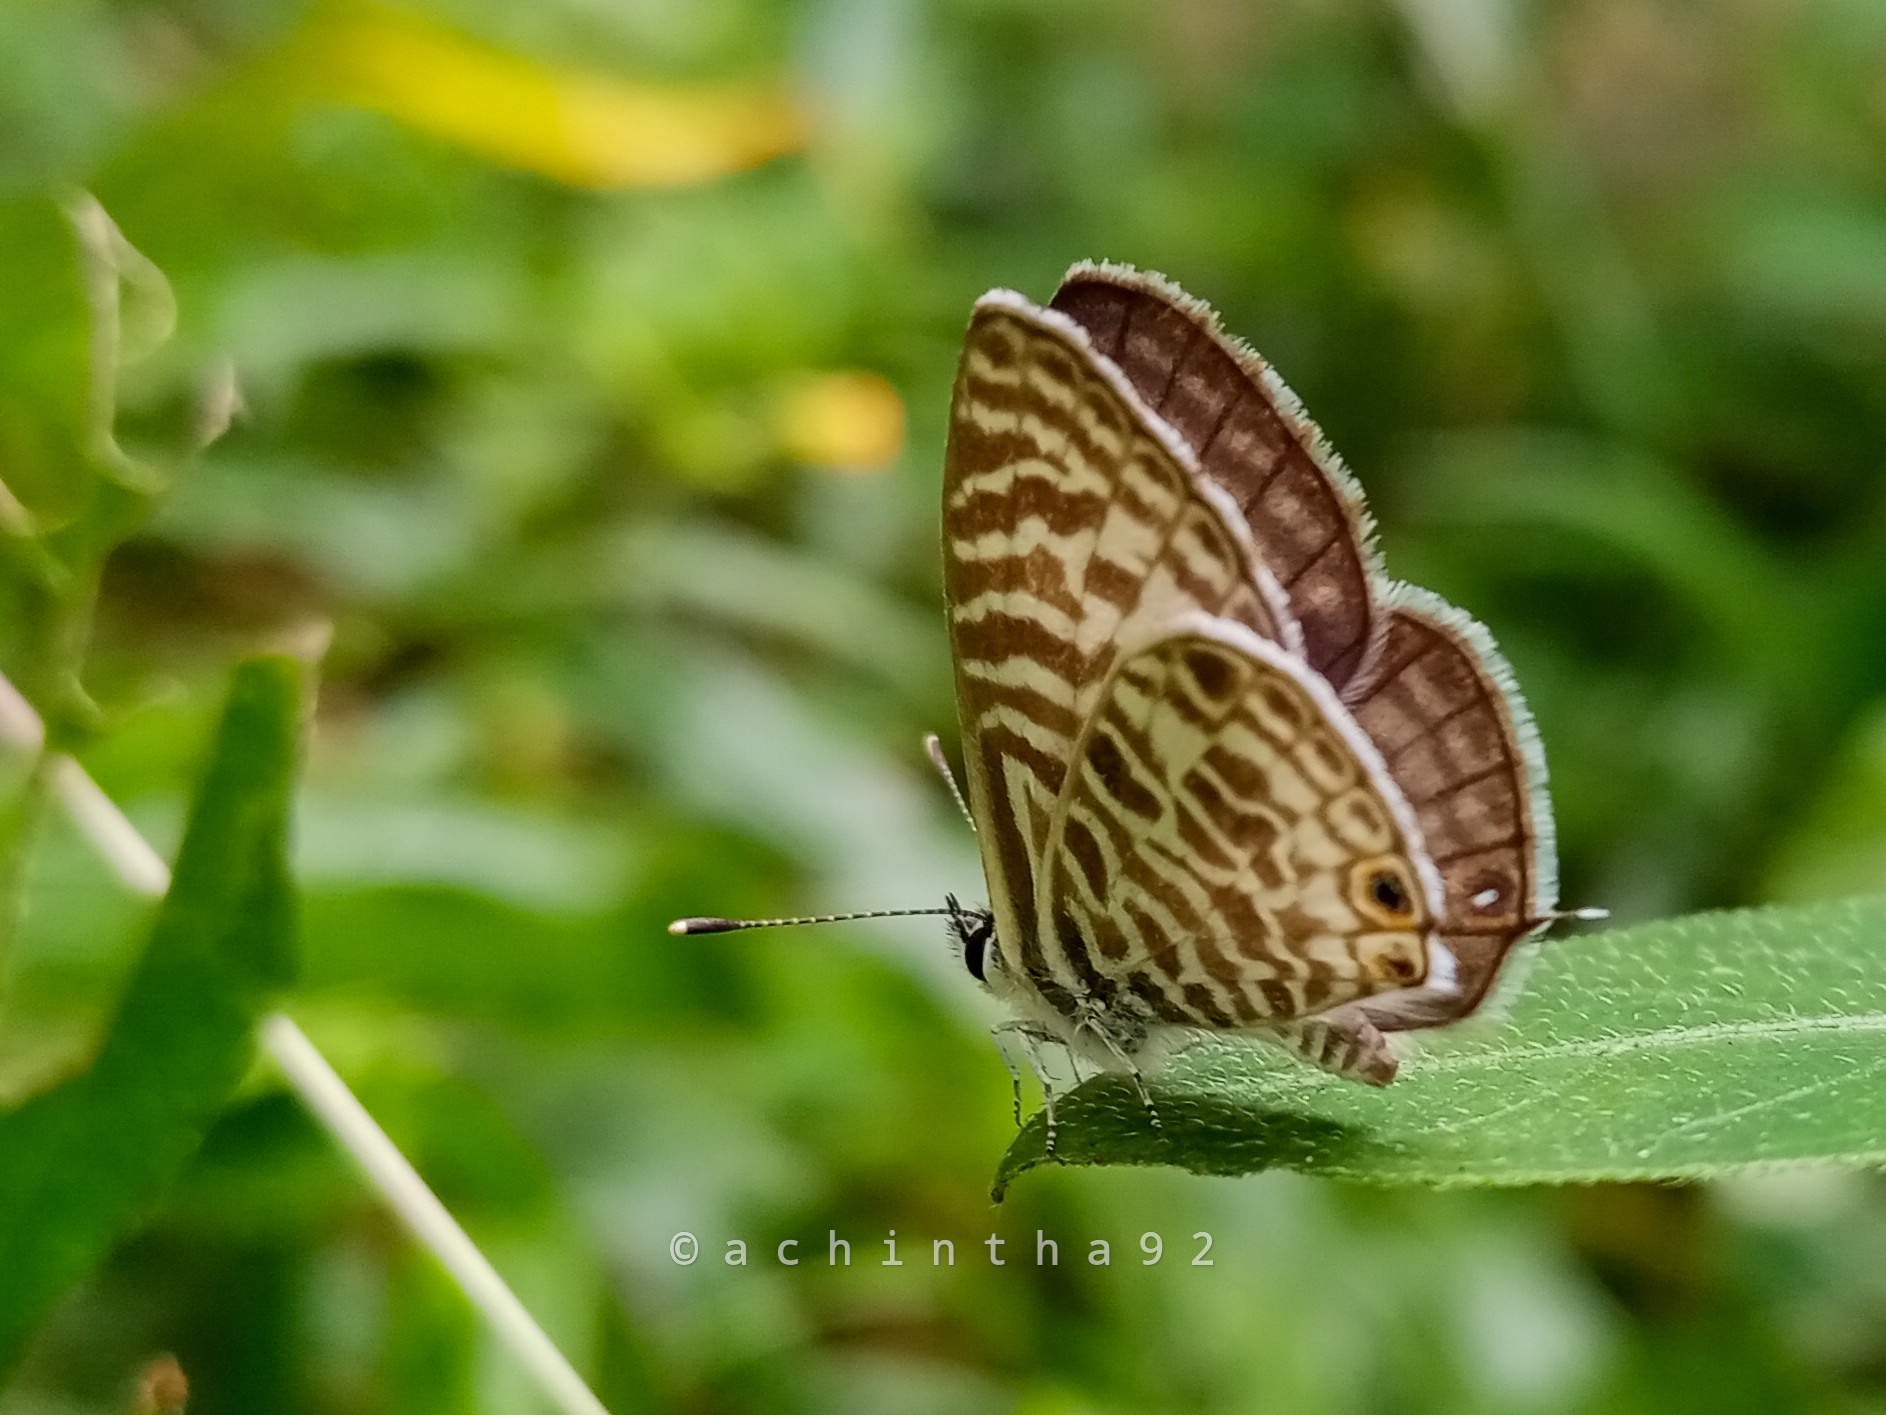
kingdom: Animalia
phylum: Arthropoda
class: Insecta
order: Lepidoptera
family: Lycaenidae
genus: Leptotes
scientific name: Leptotes plinius
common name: Zebra blue
